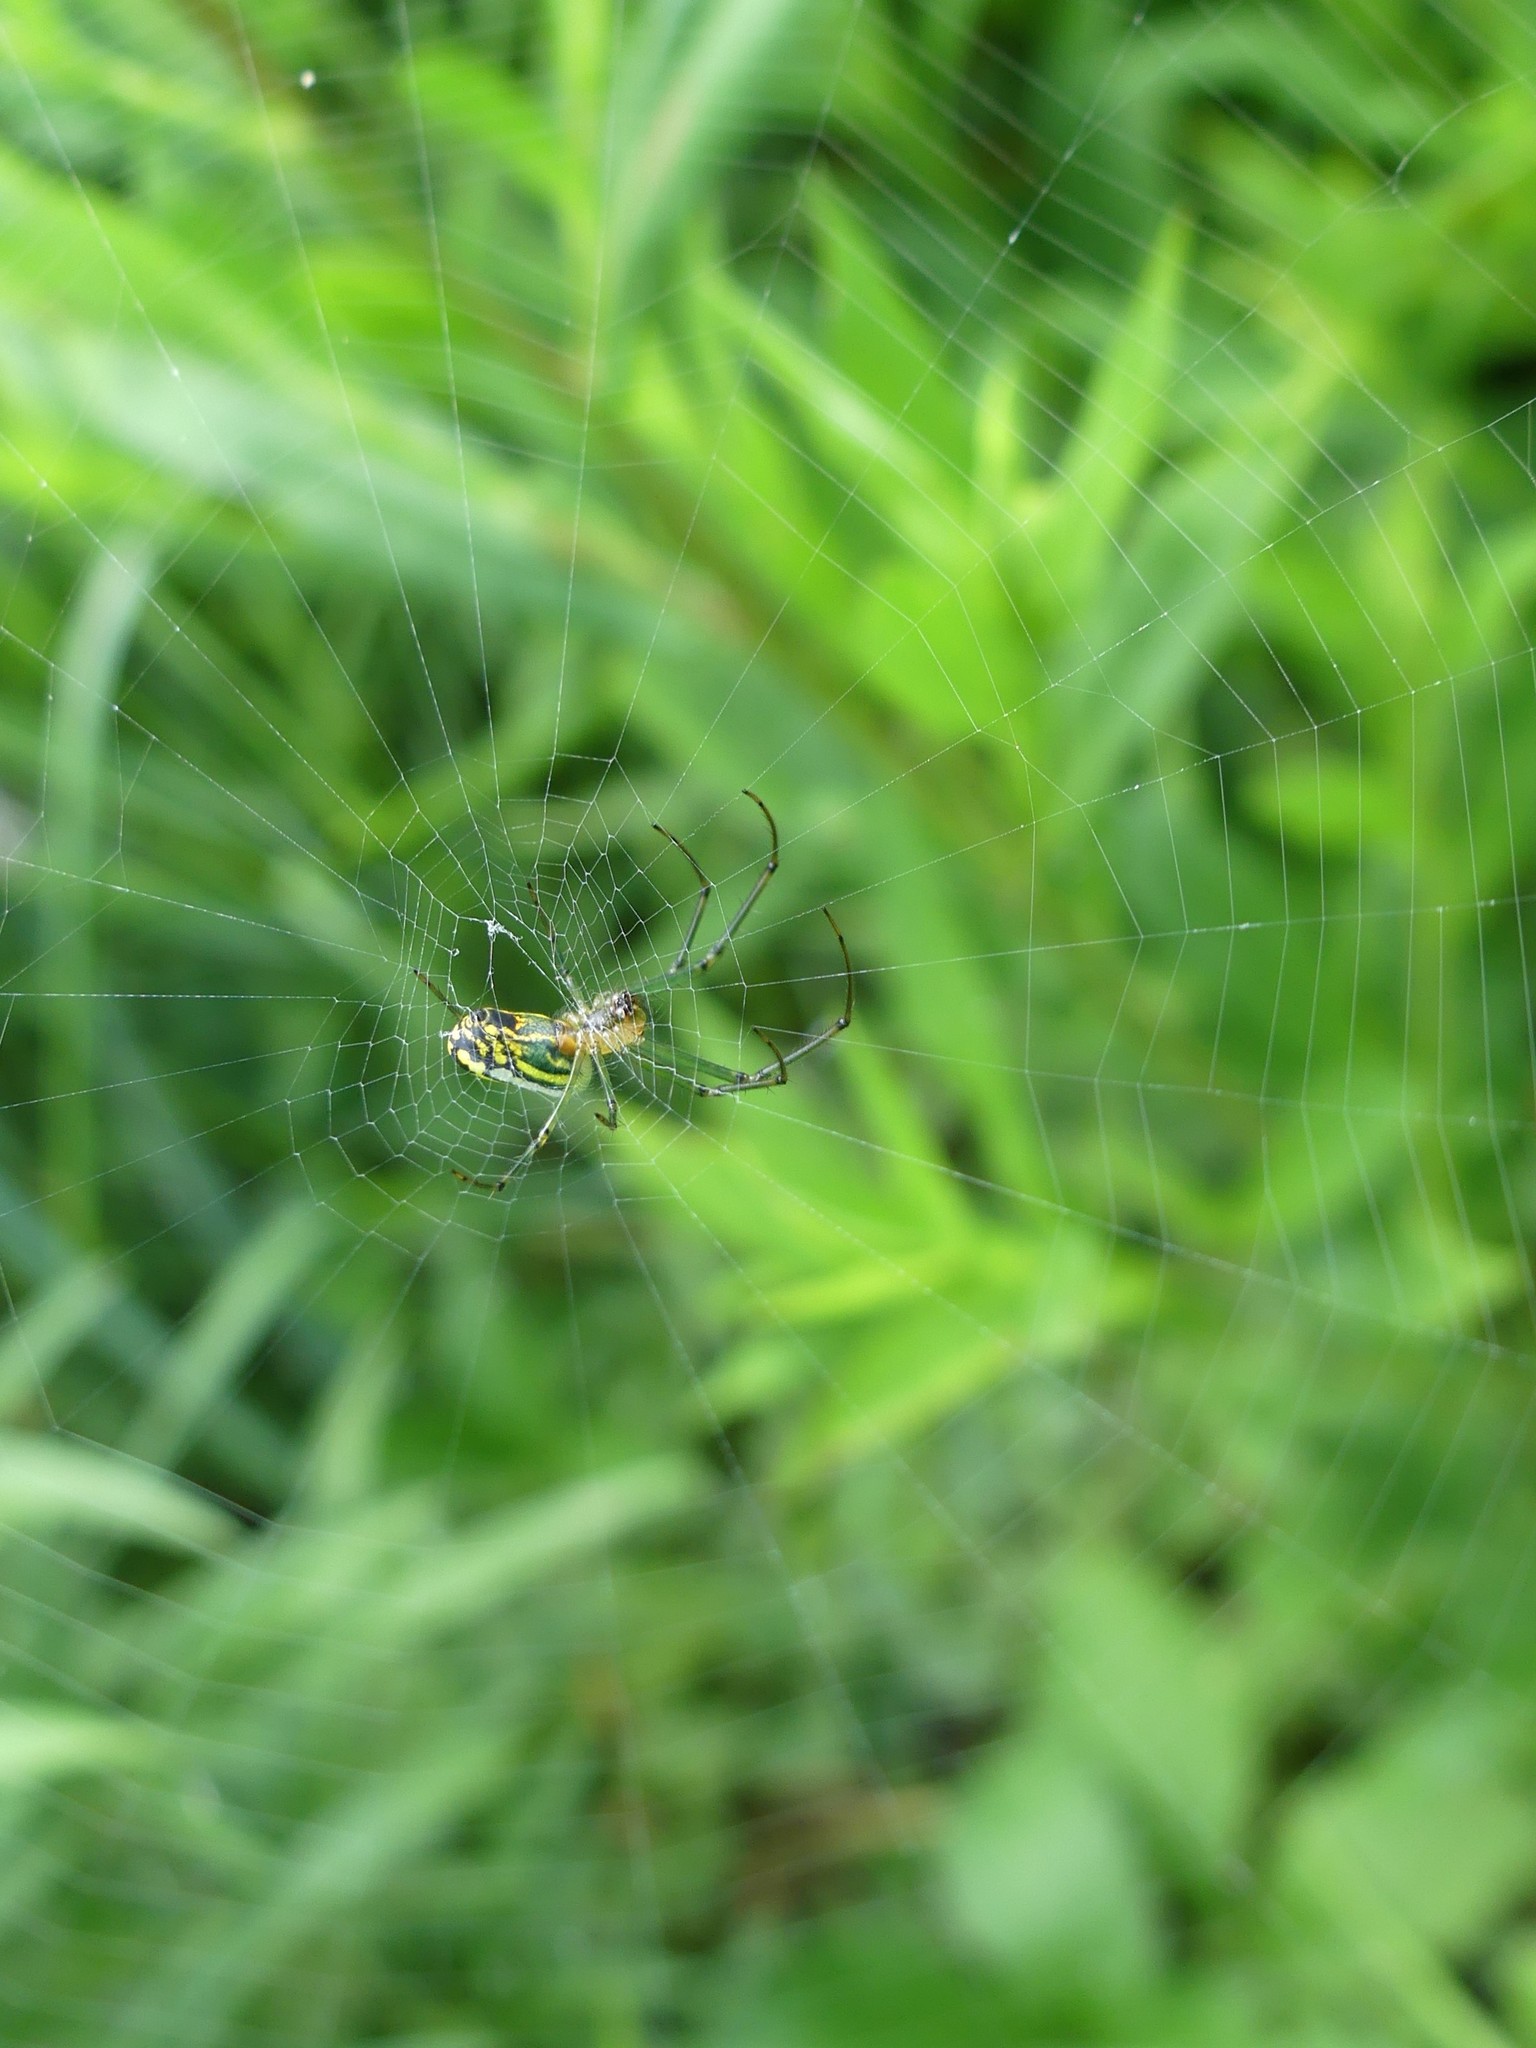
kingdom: Animalia
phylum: Arthropoda
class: Arachnida
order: Araneae
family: Tetragnathidae
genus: Leucauge
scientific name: Leucauge venusta
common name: Longjawed orb weavers
